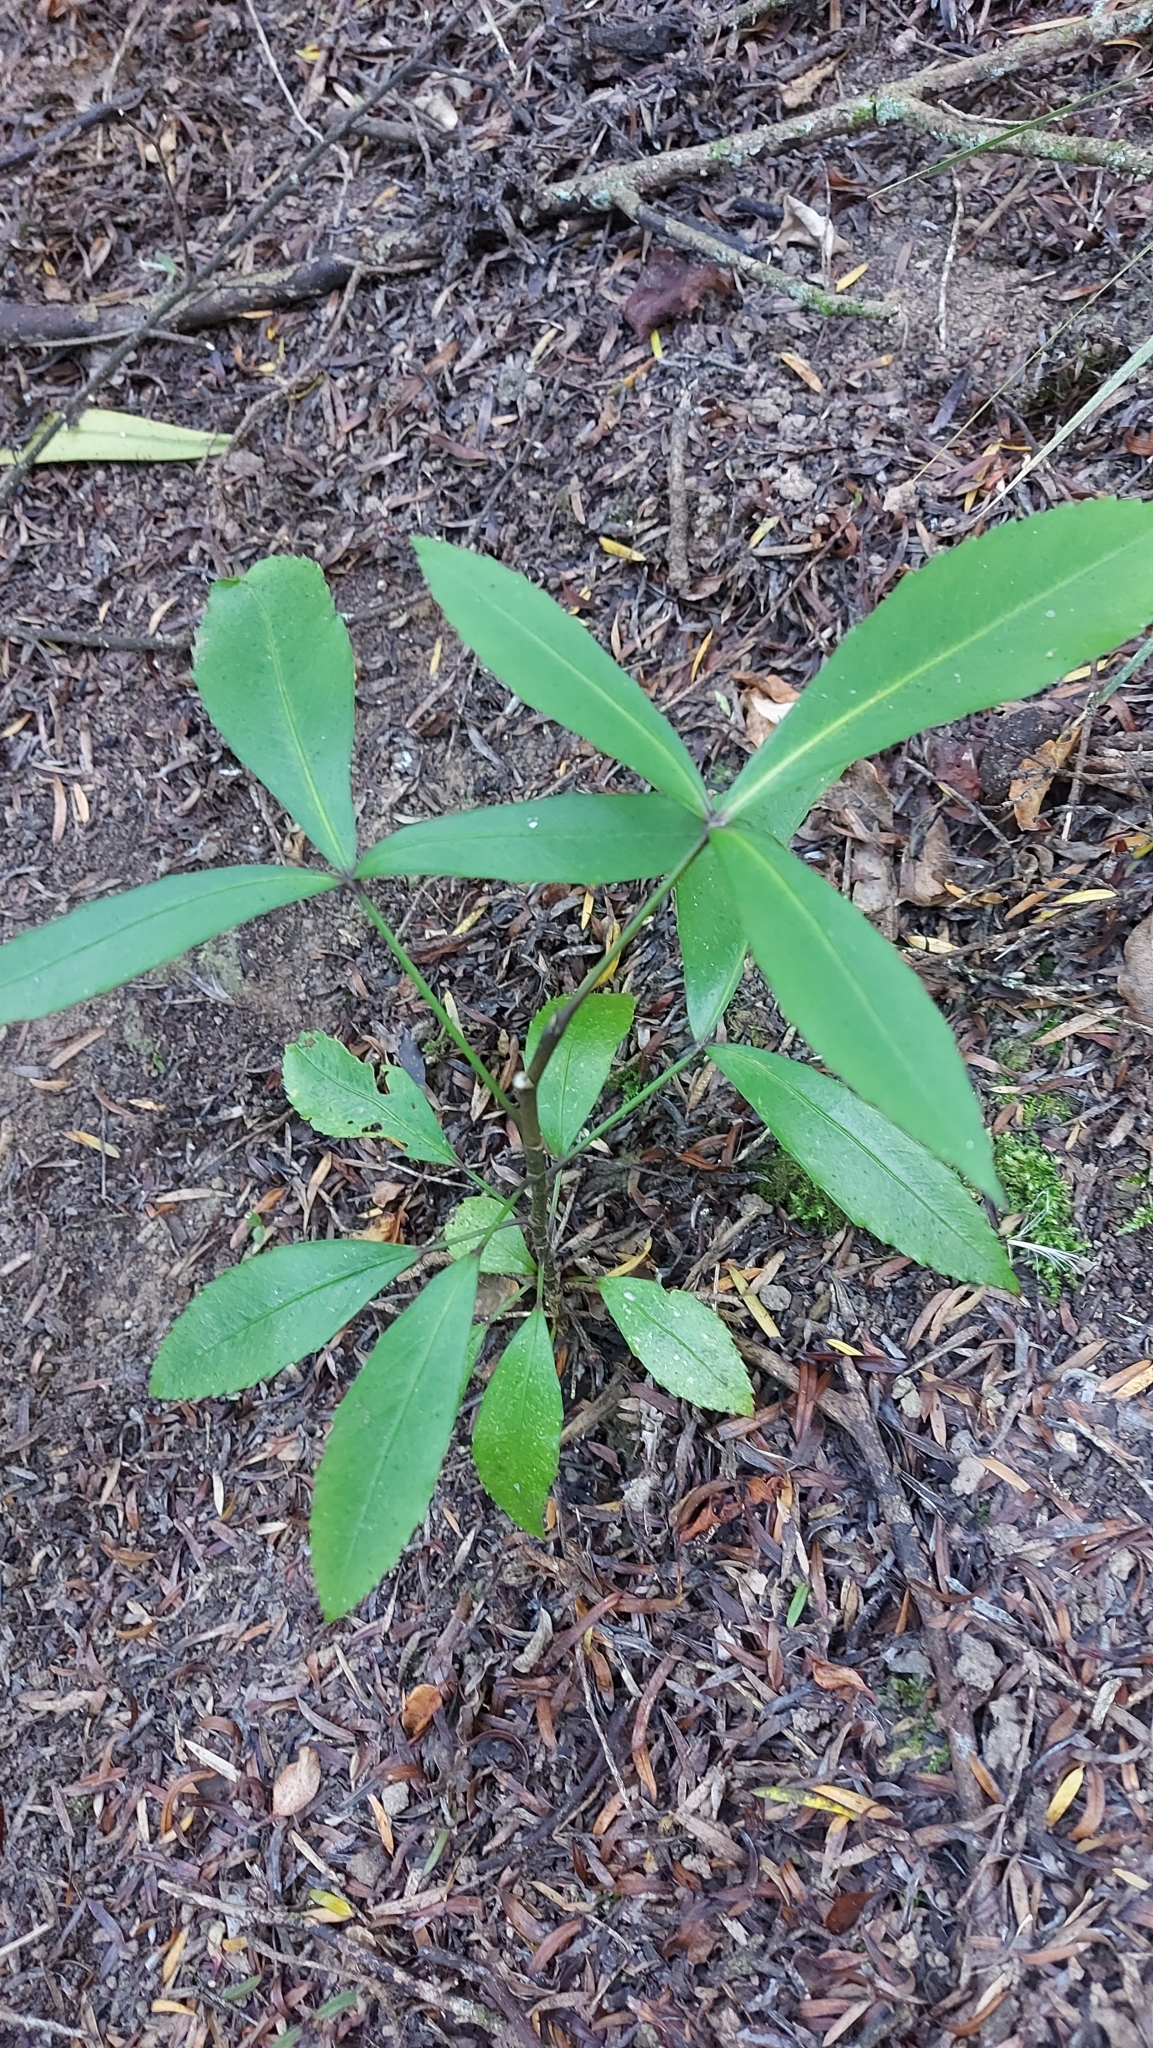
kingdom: Plantae
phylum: Tracheophyta
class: Magnoliopsida
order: Apiales
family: Araliaceae
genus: Neopanax
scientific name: Neopanax colensoi
